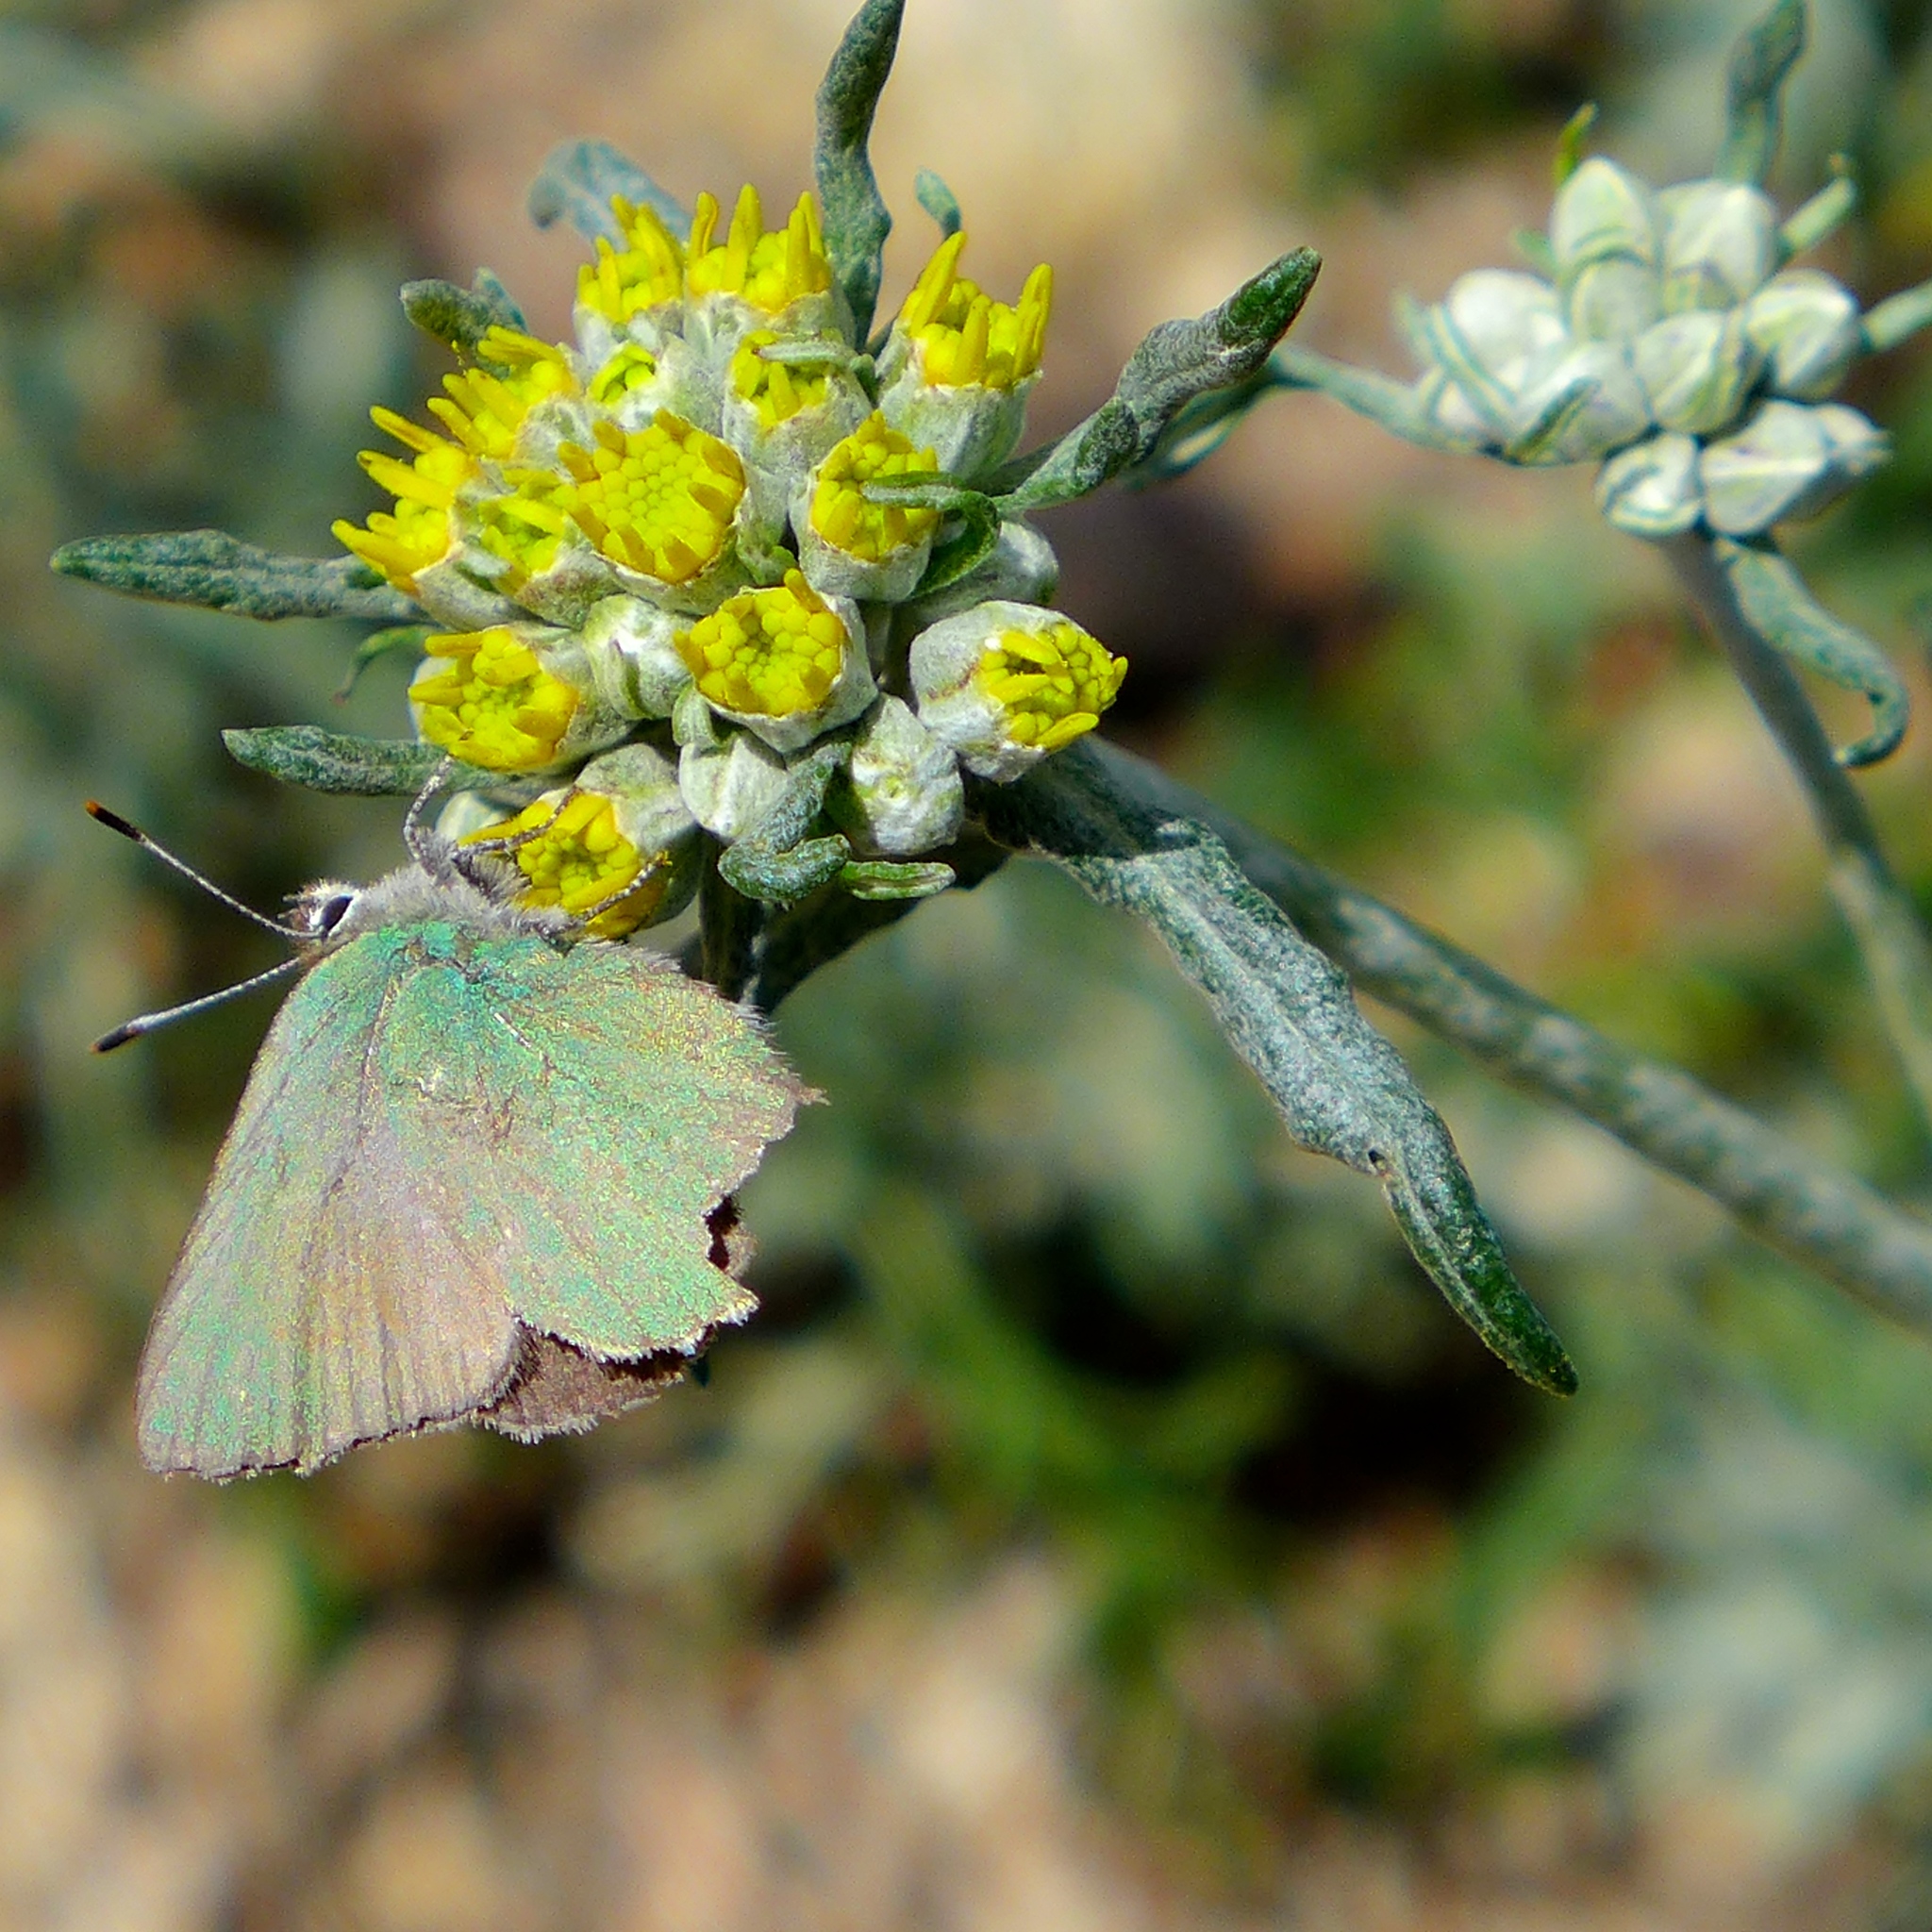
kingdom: Animalia
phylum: Arthropoda
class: Insecta
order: Lepidoptera
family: Lycaenidae
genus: Callophrys
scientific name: Callophrys dumetorum
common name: Bramble hairstreak
